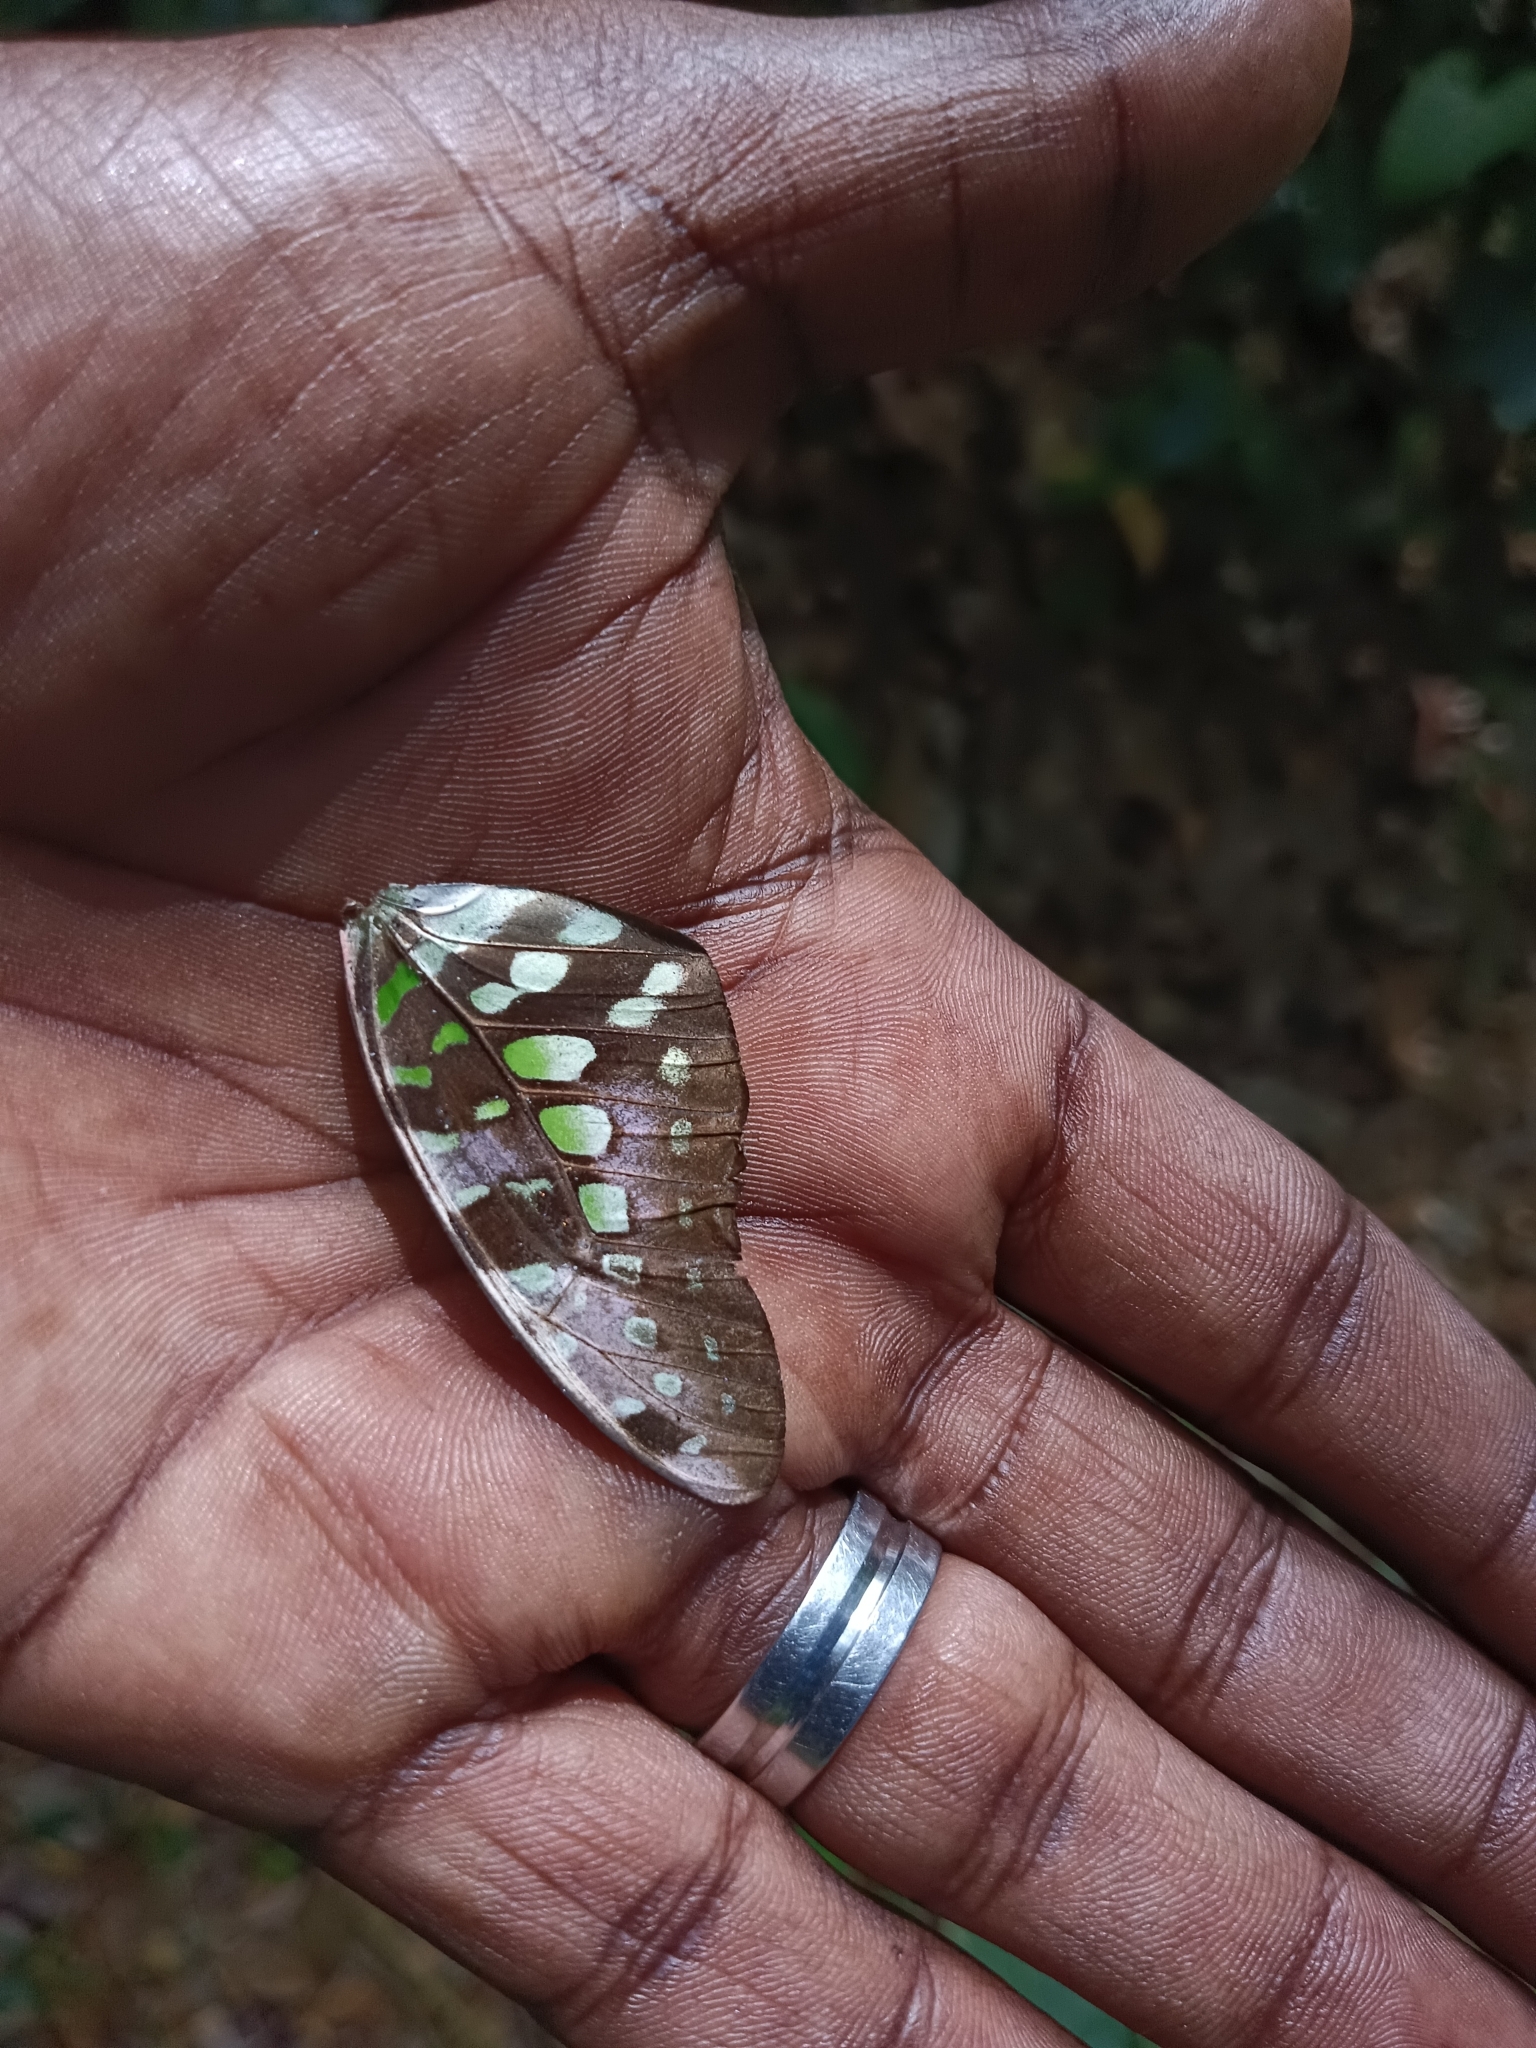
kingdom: Animalia
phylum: Arthropoda
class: Insecta
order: Lepidoptera
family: Papilionidae
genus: Graphium
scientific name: Graphium agamemnon
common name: Tailed jay
